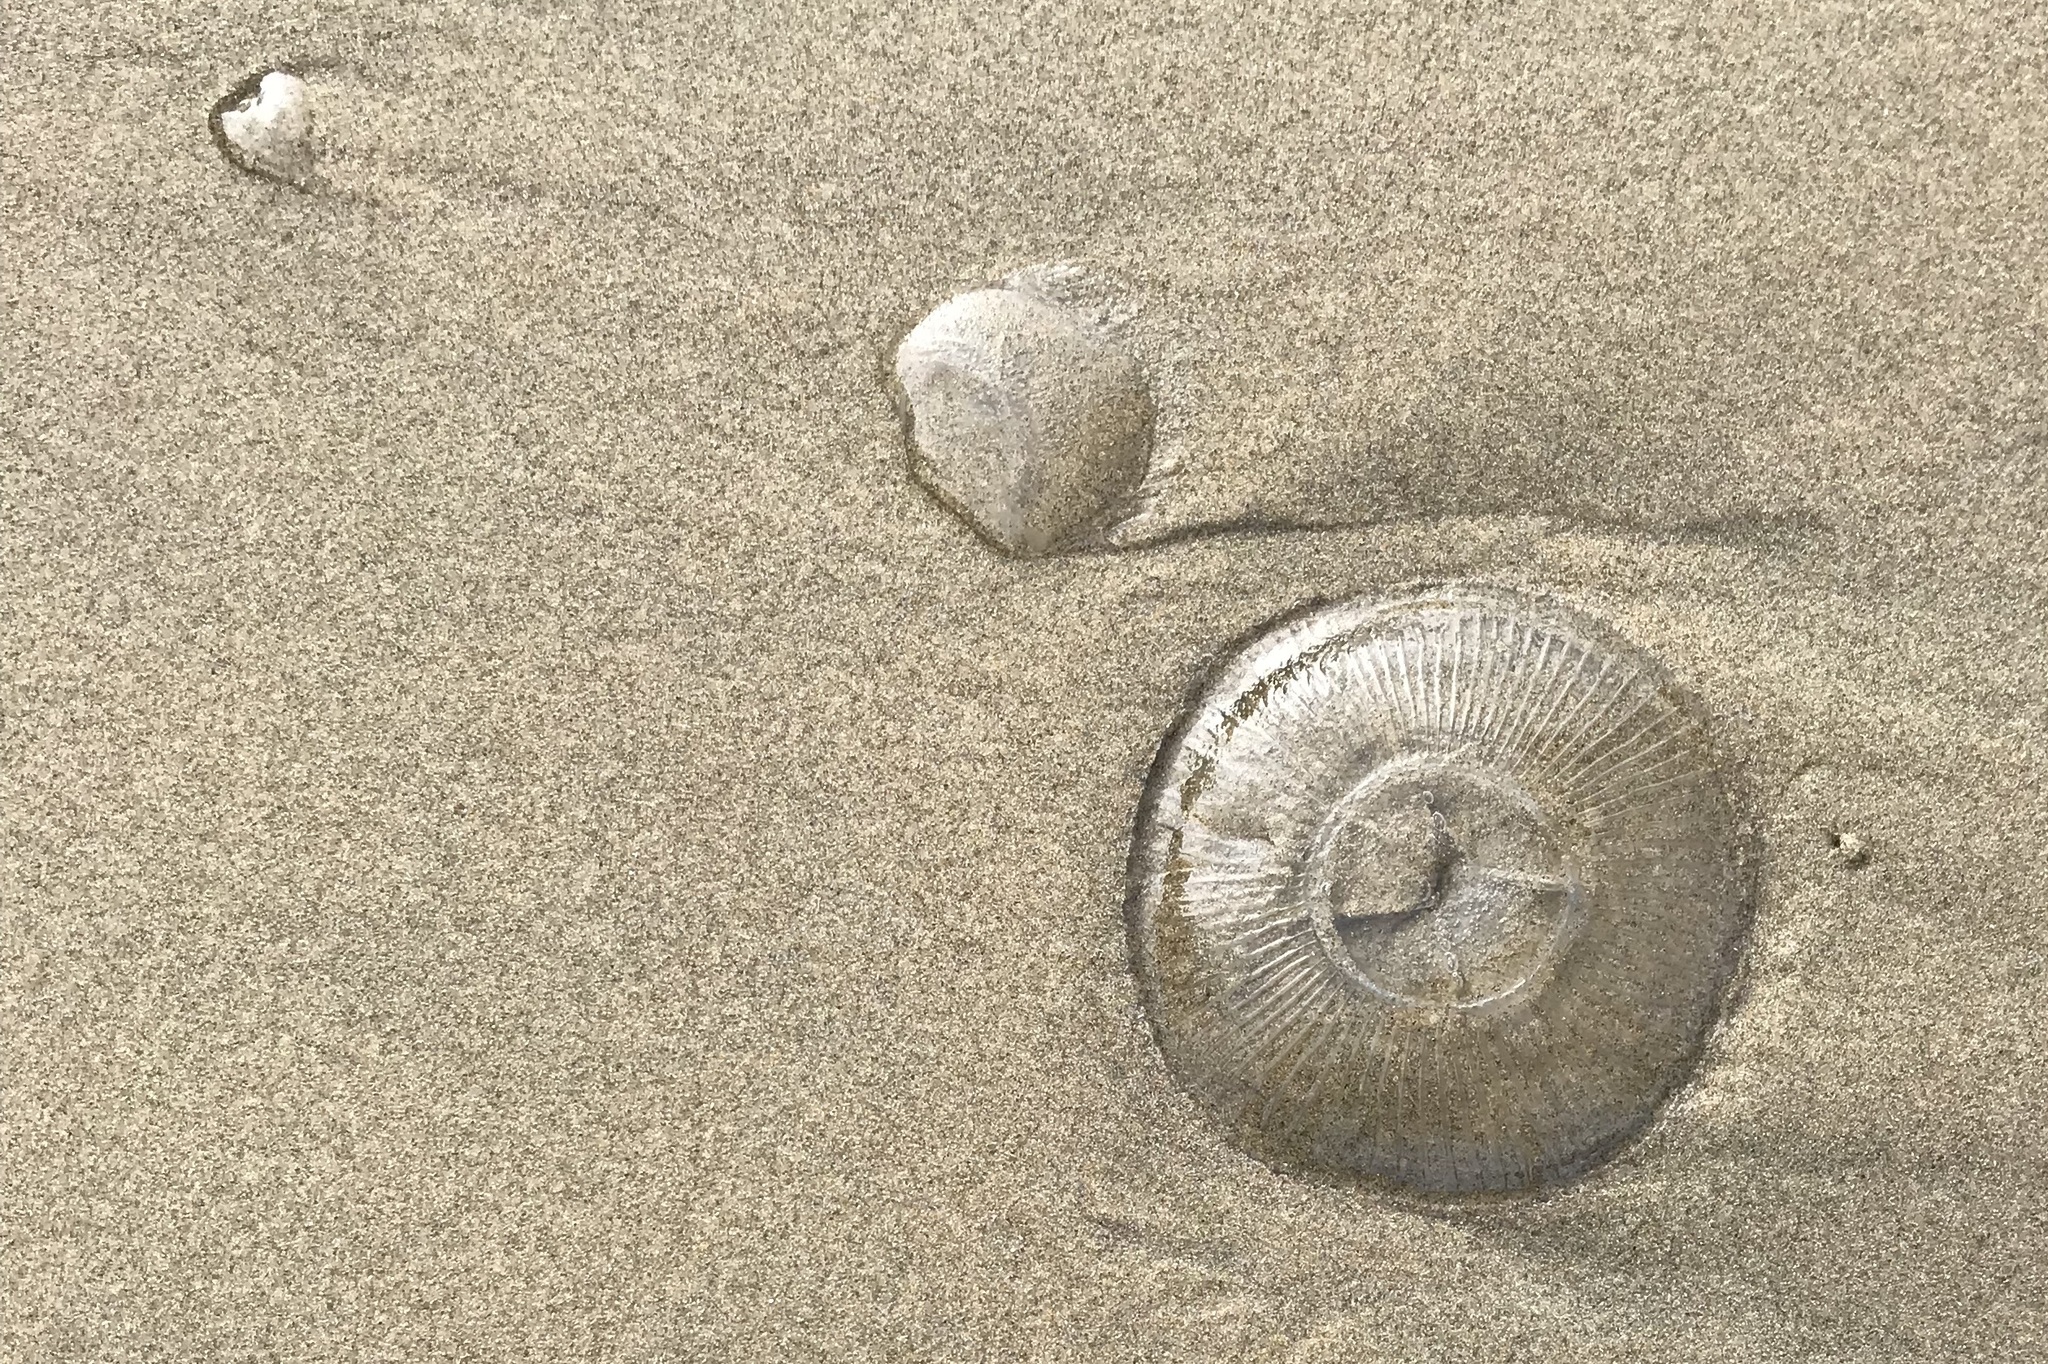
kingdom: Animalia
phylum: Cnidaria
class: Hydrozoa
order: Leptothecata
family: Aequoreidae
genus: Aequorea
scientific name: Aequorea victoria
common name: Water jellyfish
